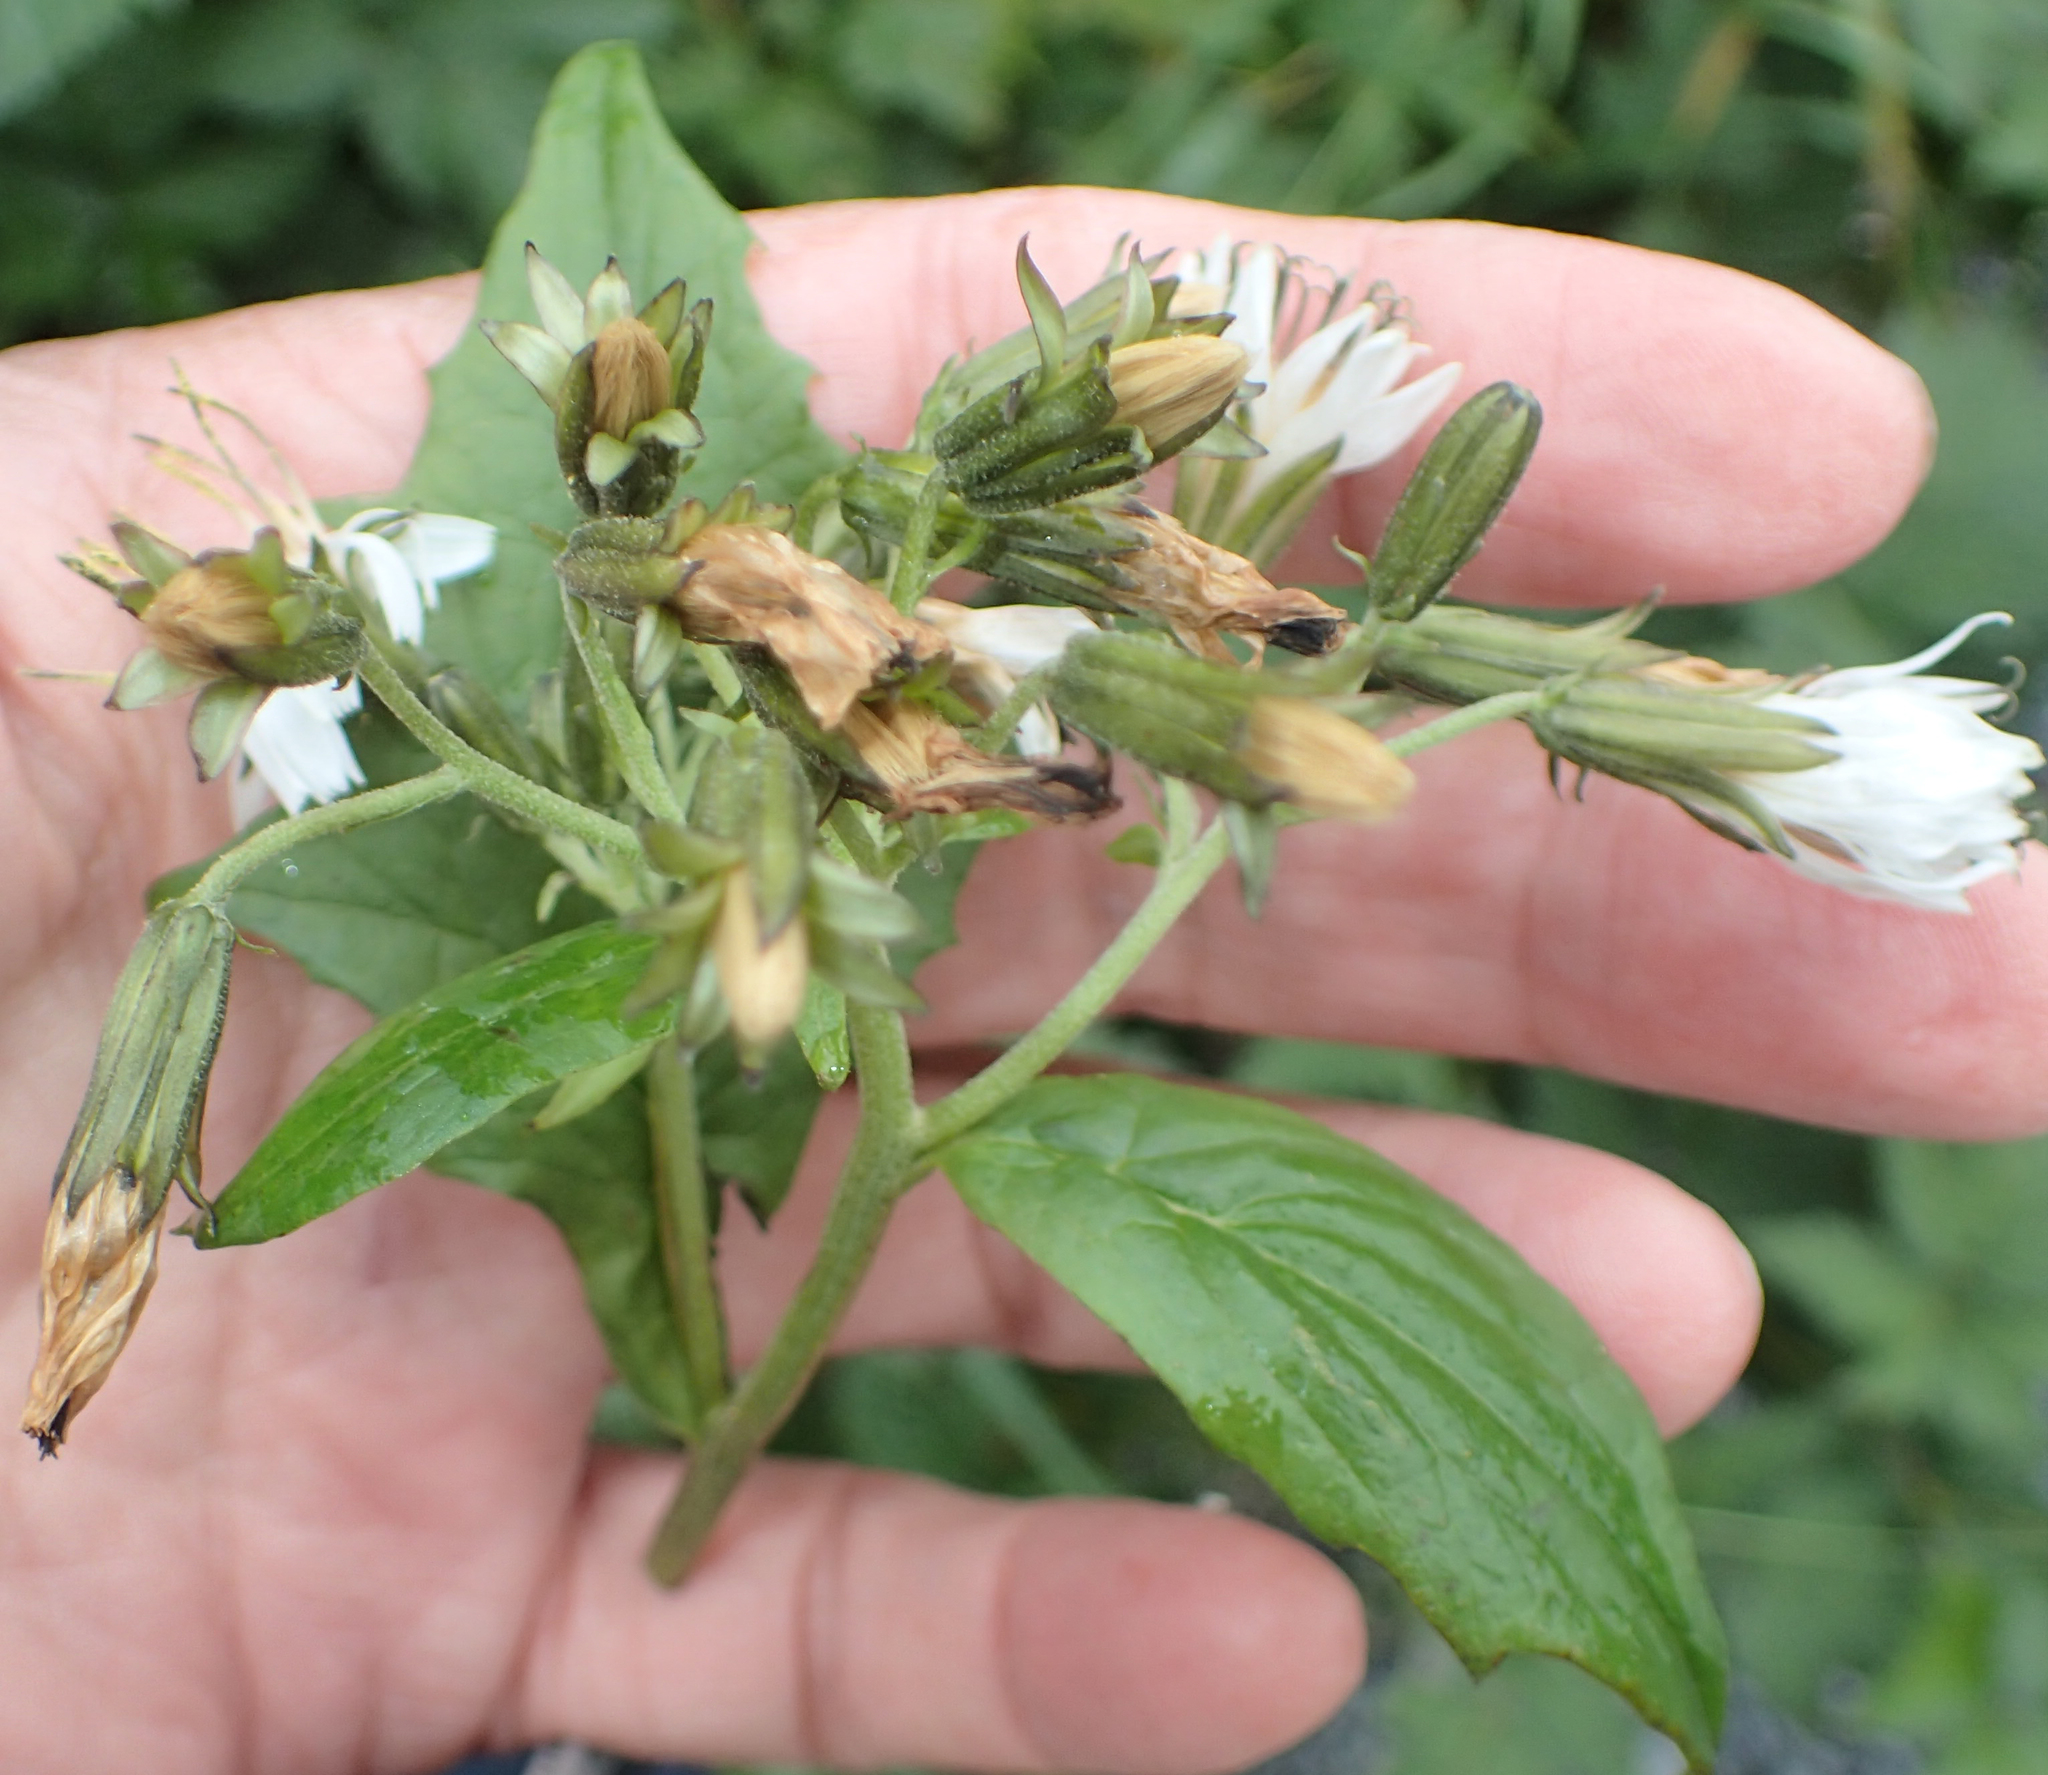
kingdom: Plantae
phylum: Tracheophyta
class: Magnoliopsida
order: Asterales
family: Asteraceae
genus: Nabalus
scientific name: Nabalus hastatus
